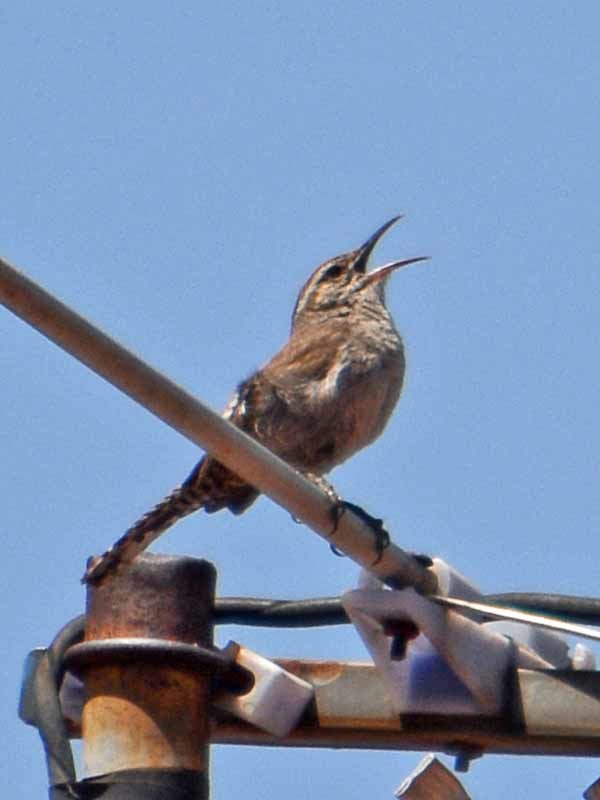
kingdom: Animalia
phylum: Chordata
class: Aves
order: Passeriformes
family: Troglodytidae
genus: Thryomanes
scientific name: Thryomanes bewickii
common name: Bewick's wren
